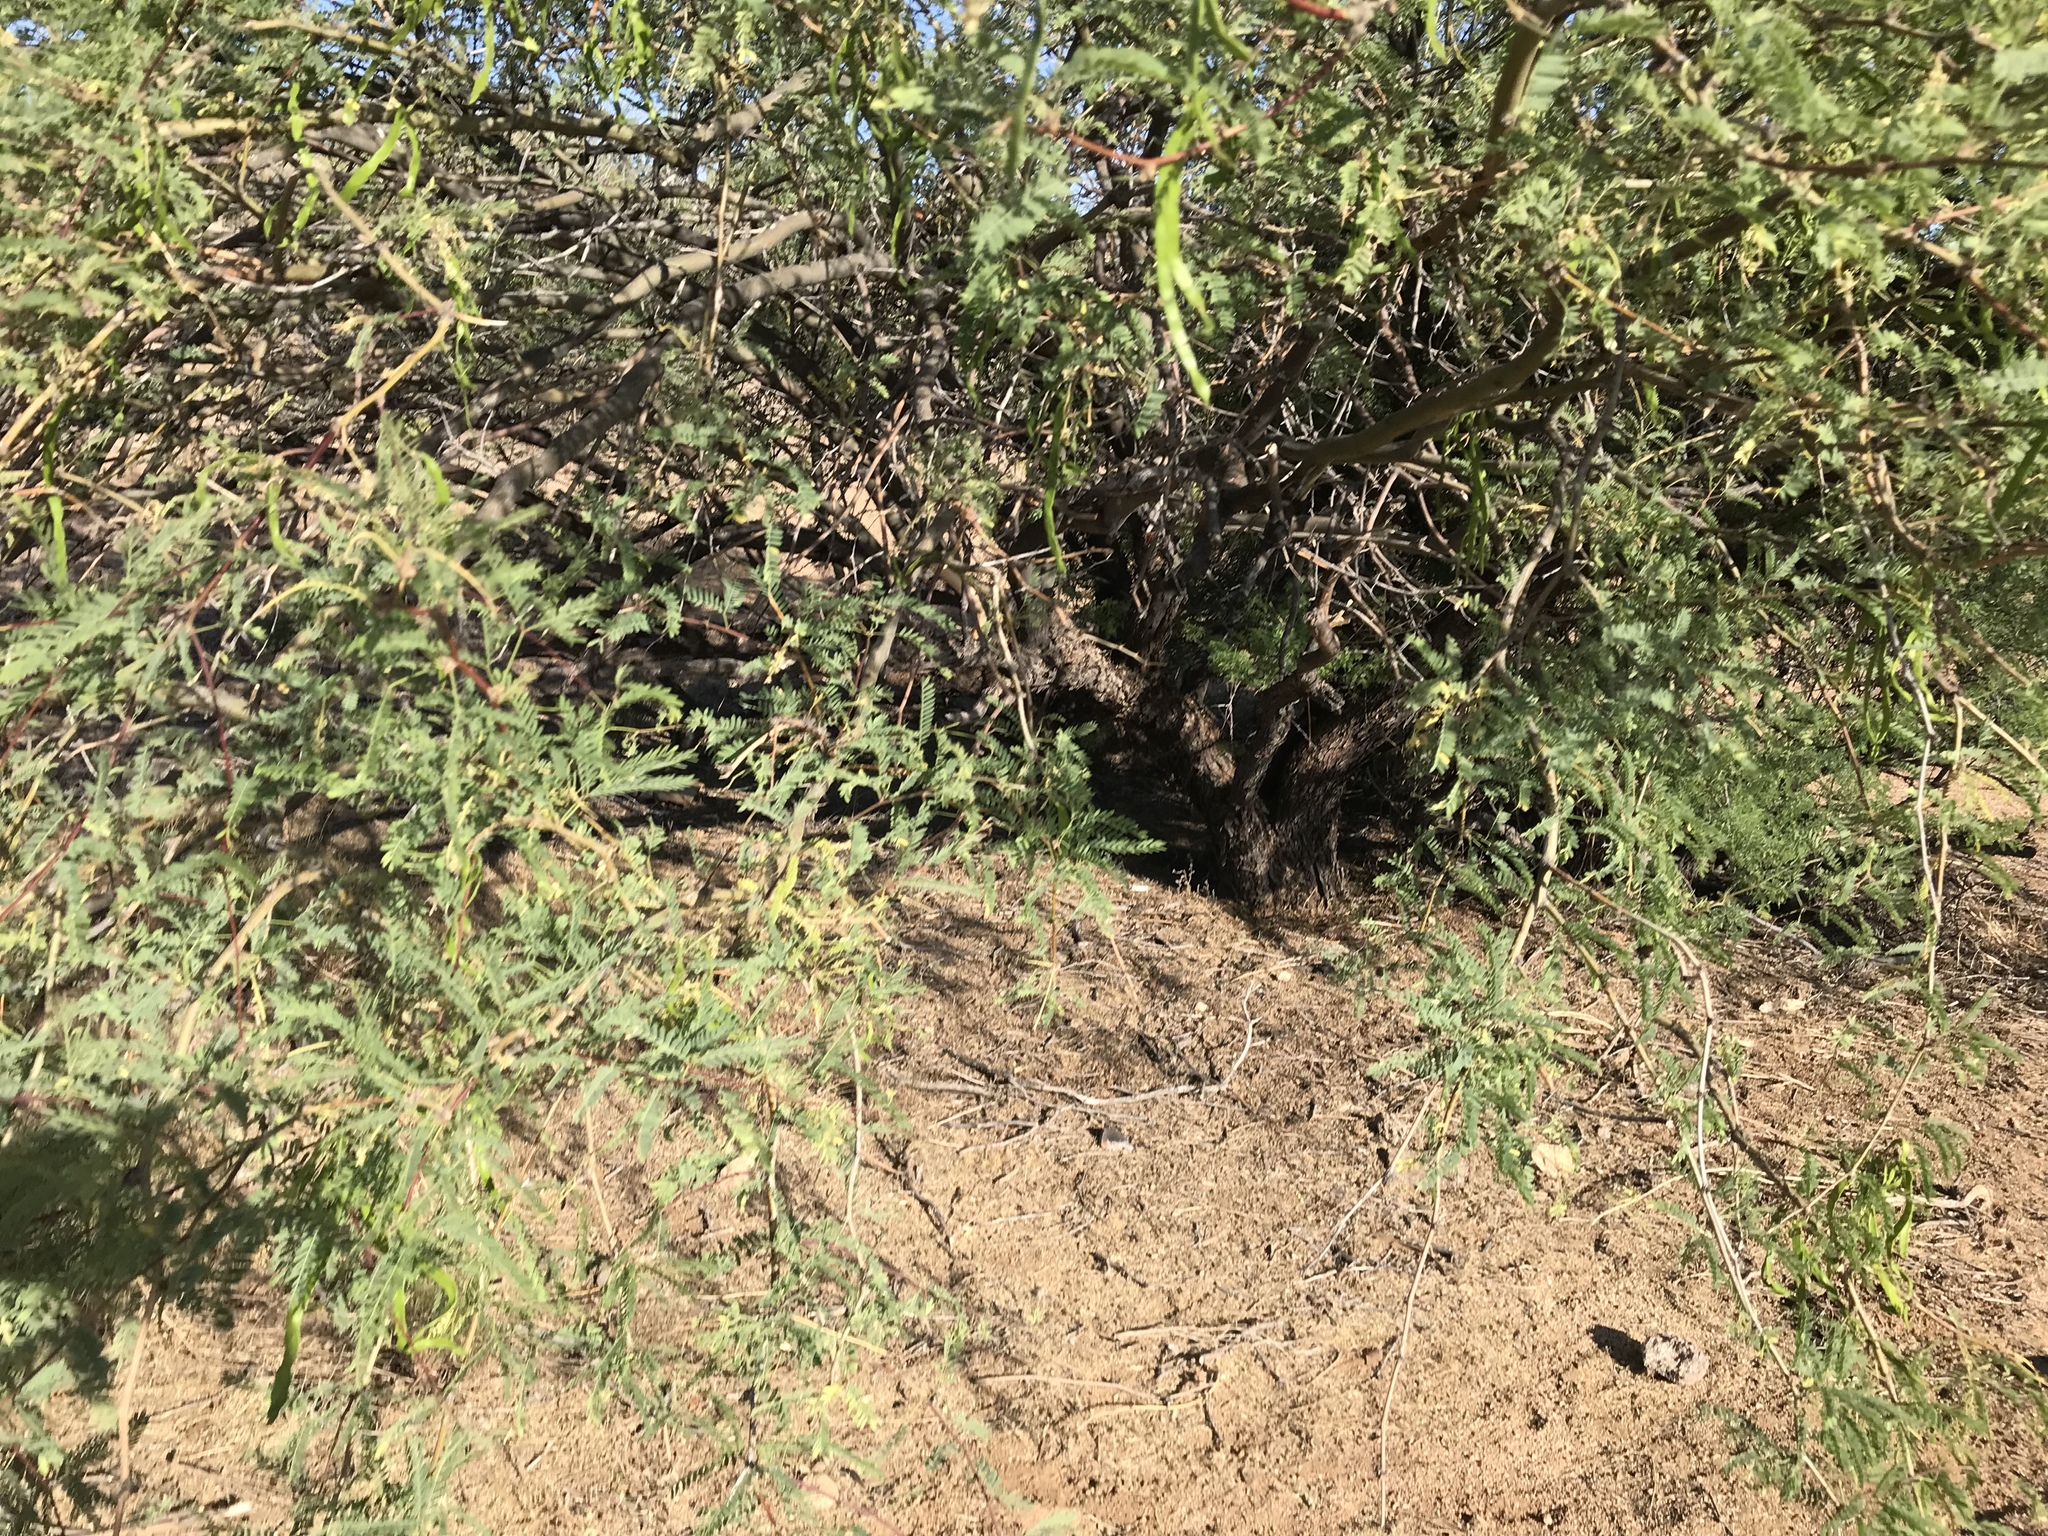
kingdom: Plantae
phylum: Tracheophyta
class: Magnoliopsida
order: Fabales
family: Fabaceae
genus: Prosopis
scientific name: Prosopis velutina
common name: Velvet mesquite
